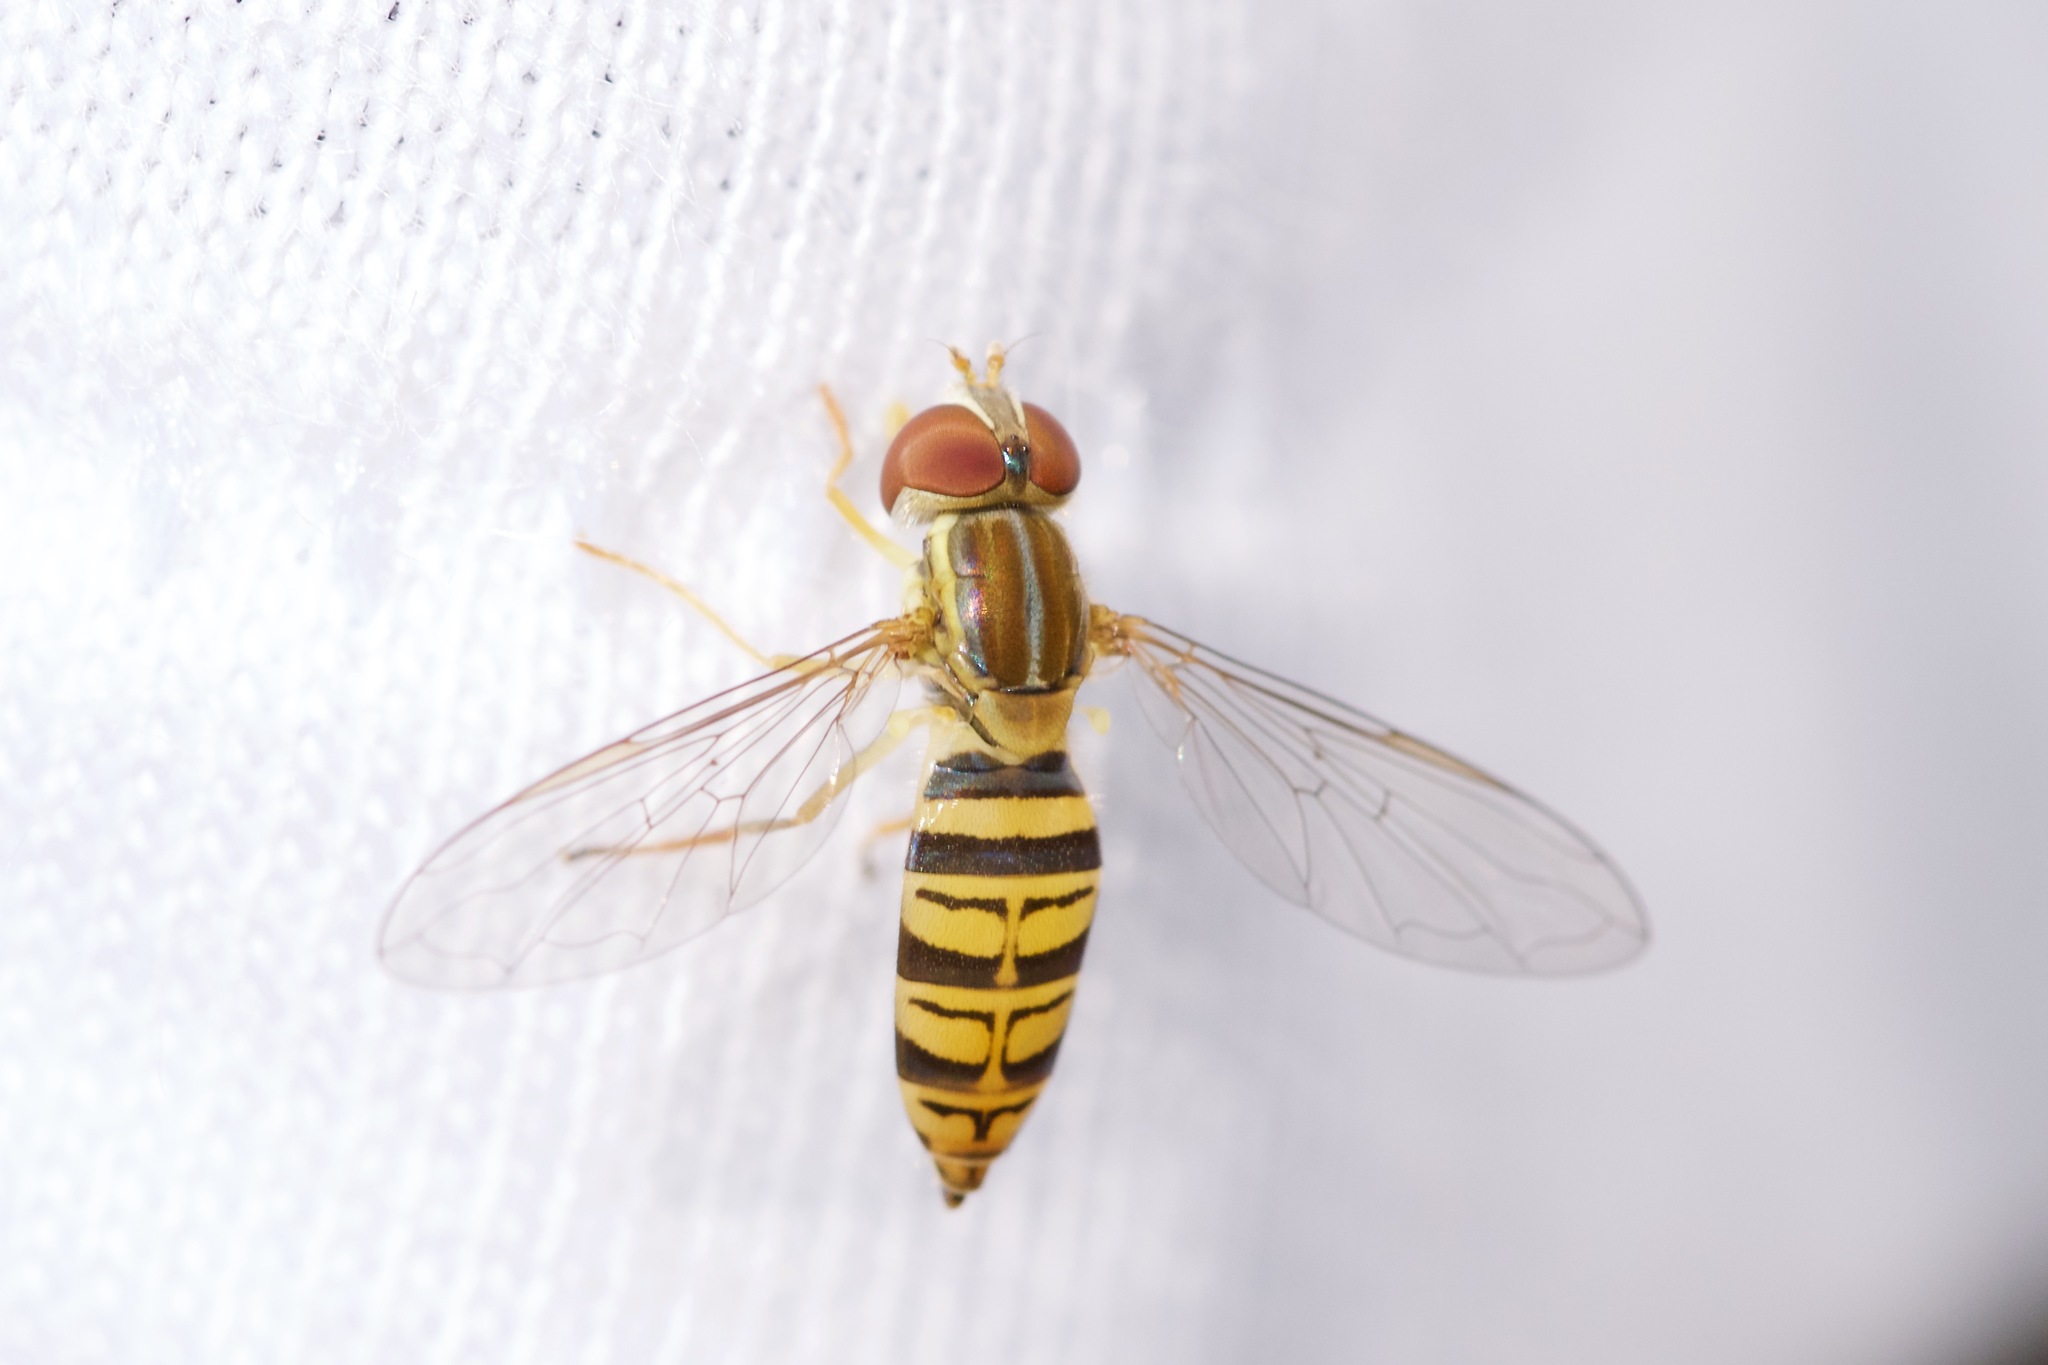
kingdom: Animalia
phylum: Arthropoda
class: Insecta
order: Diptera
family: Syrphidae
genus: Toxomerus
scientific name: Toxomerus politus
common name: Maize calligrapher
